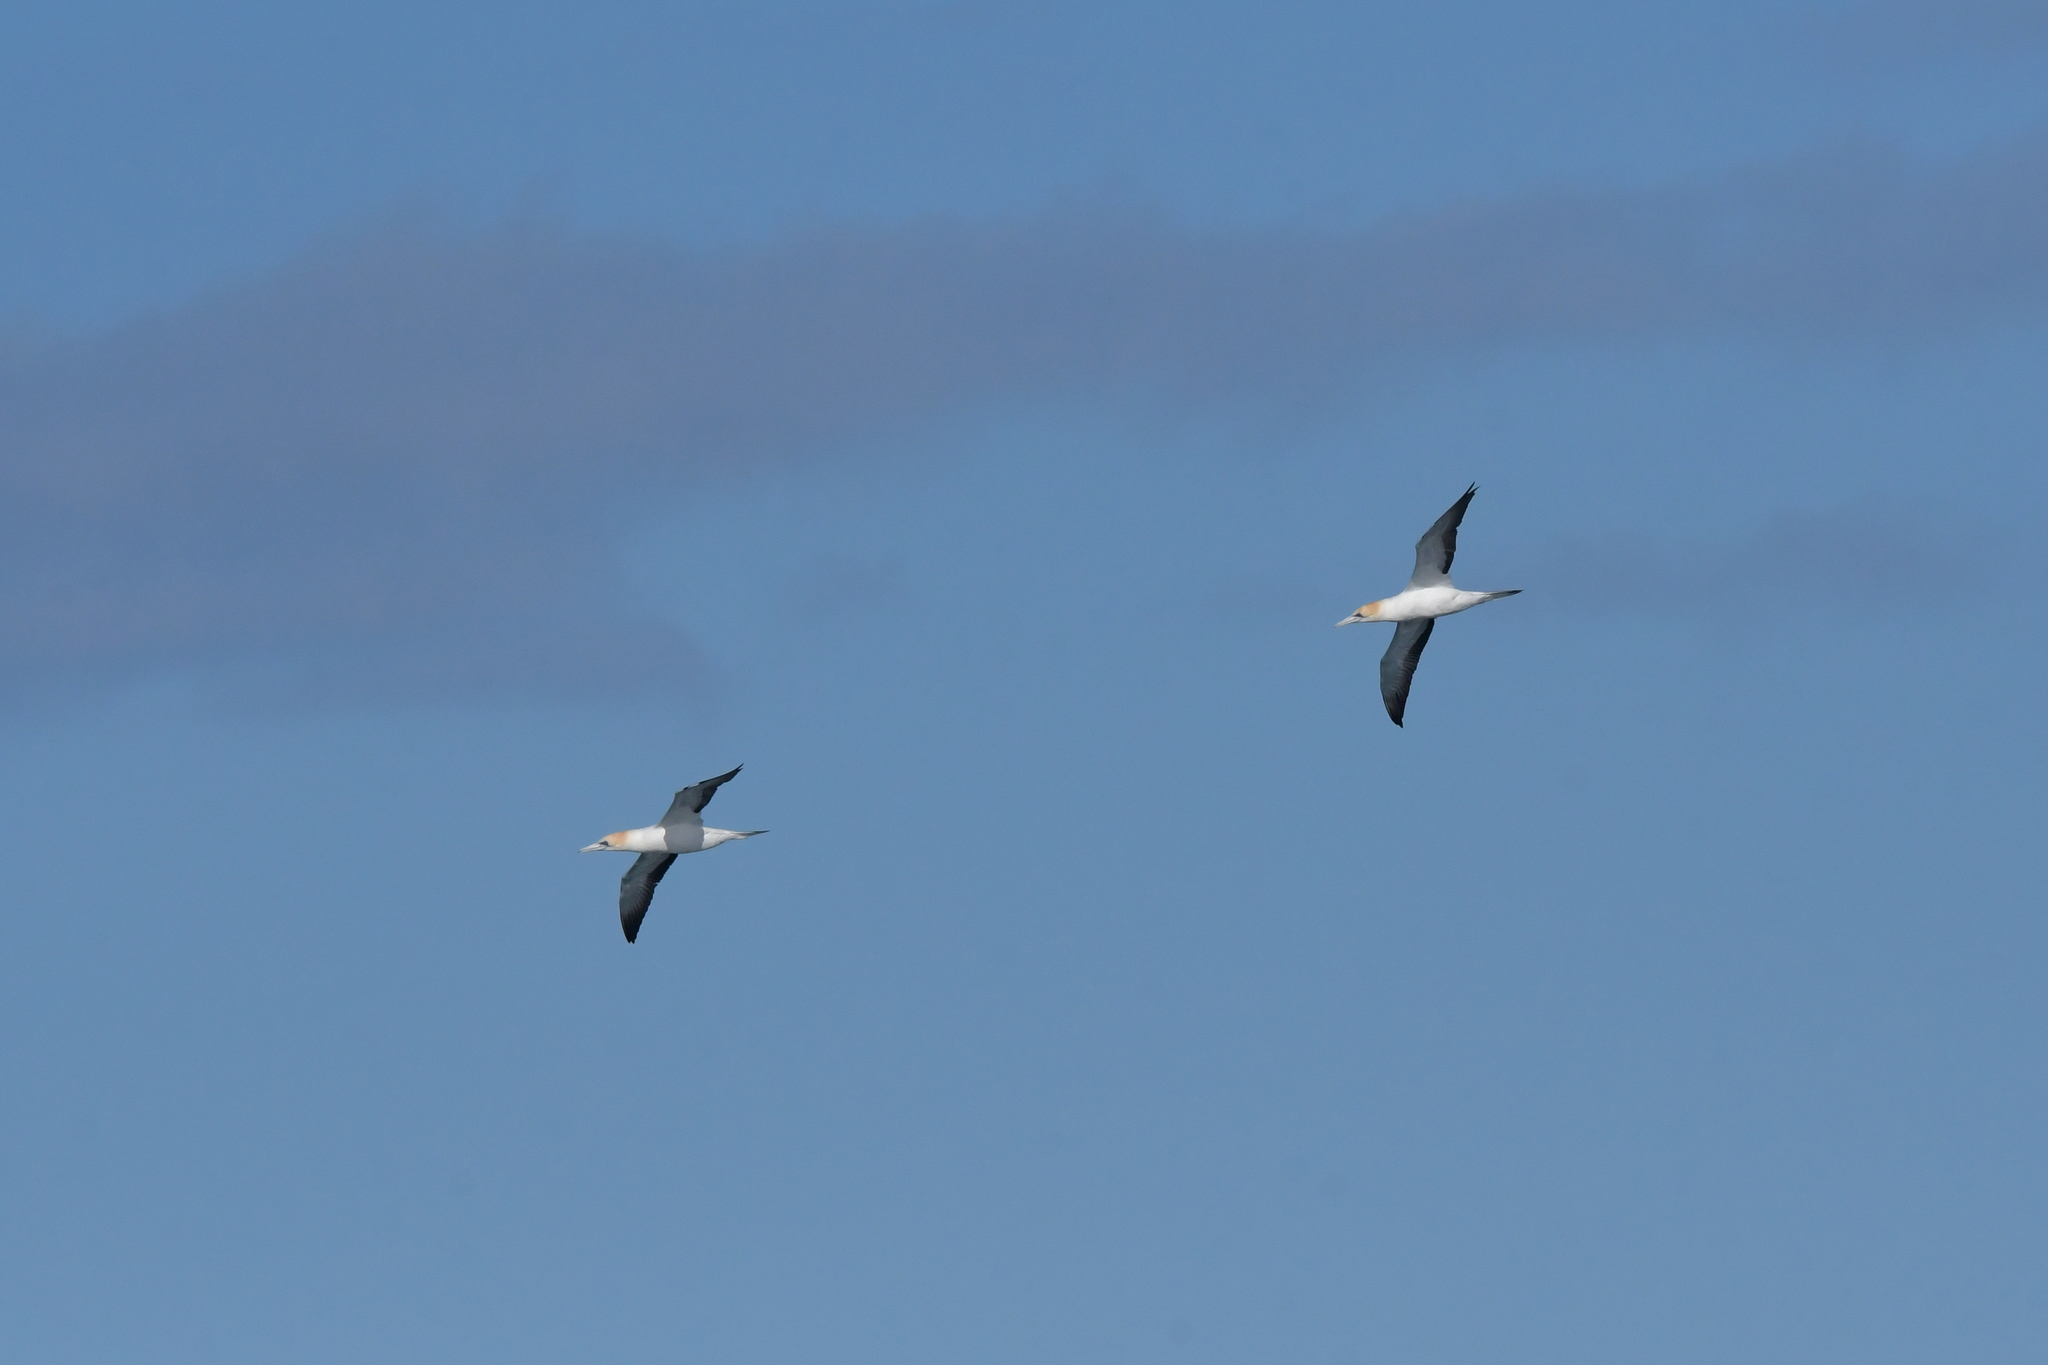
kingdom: Animalia
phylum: Chordata
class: Aves
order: Suliformes
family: Sulidae
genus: Morus
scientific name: Morus serrator
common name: Australasian gannet
